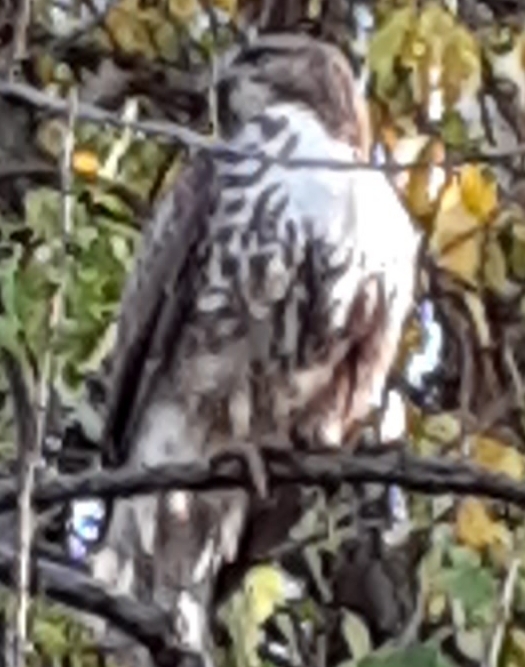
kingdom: Animalia
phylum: Chordata
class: Aves
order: Accipitriformes
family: Accipitridae
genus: Buteo
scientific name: Buteo jamaicensis
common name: Red-tailed hawk
